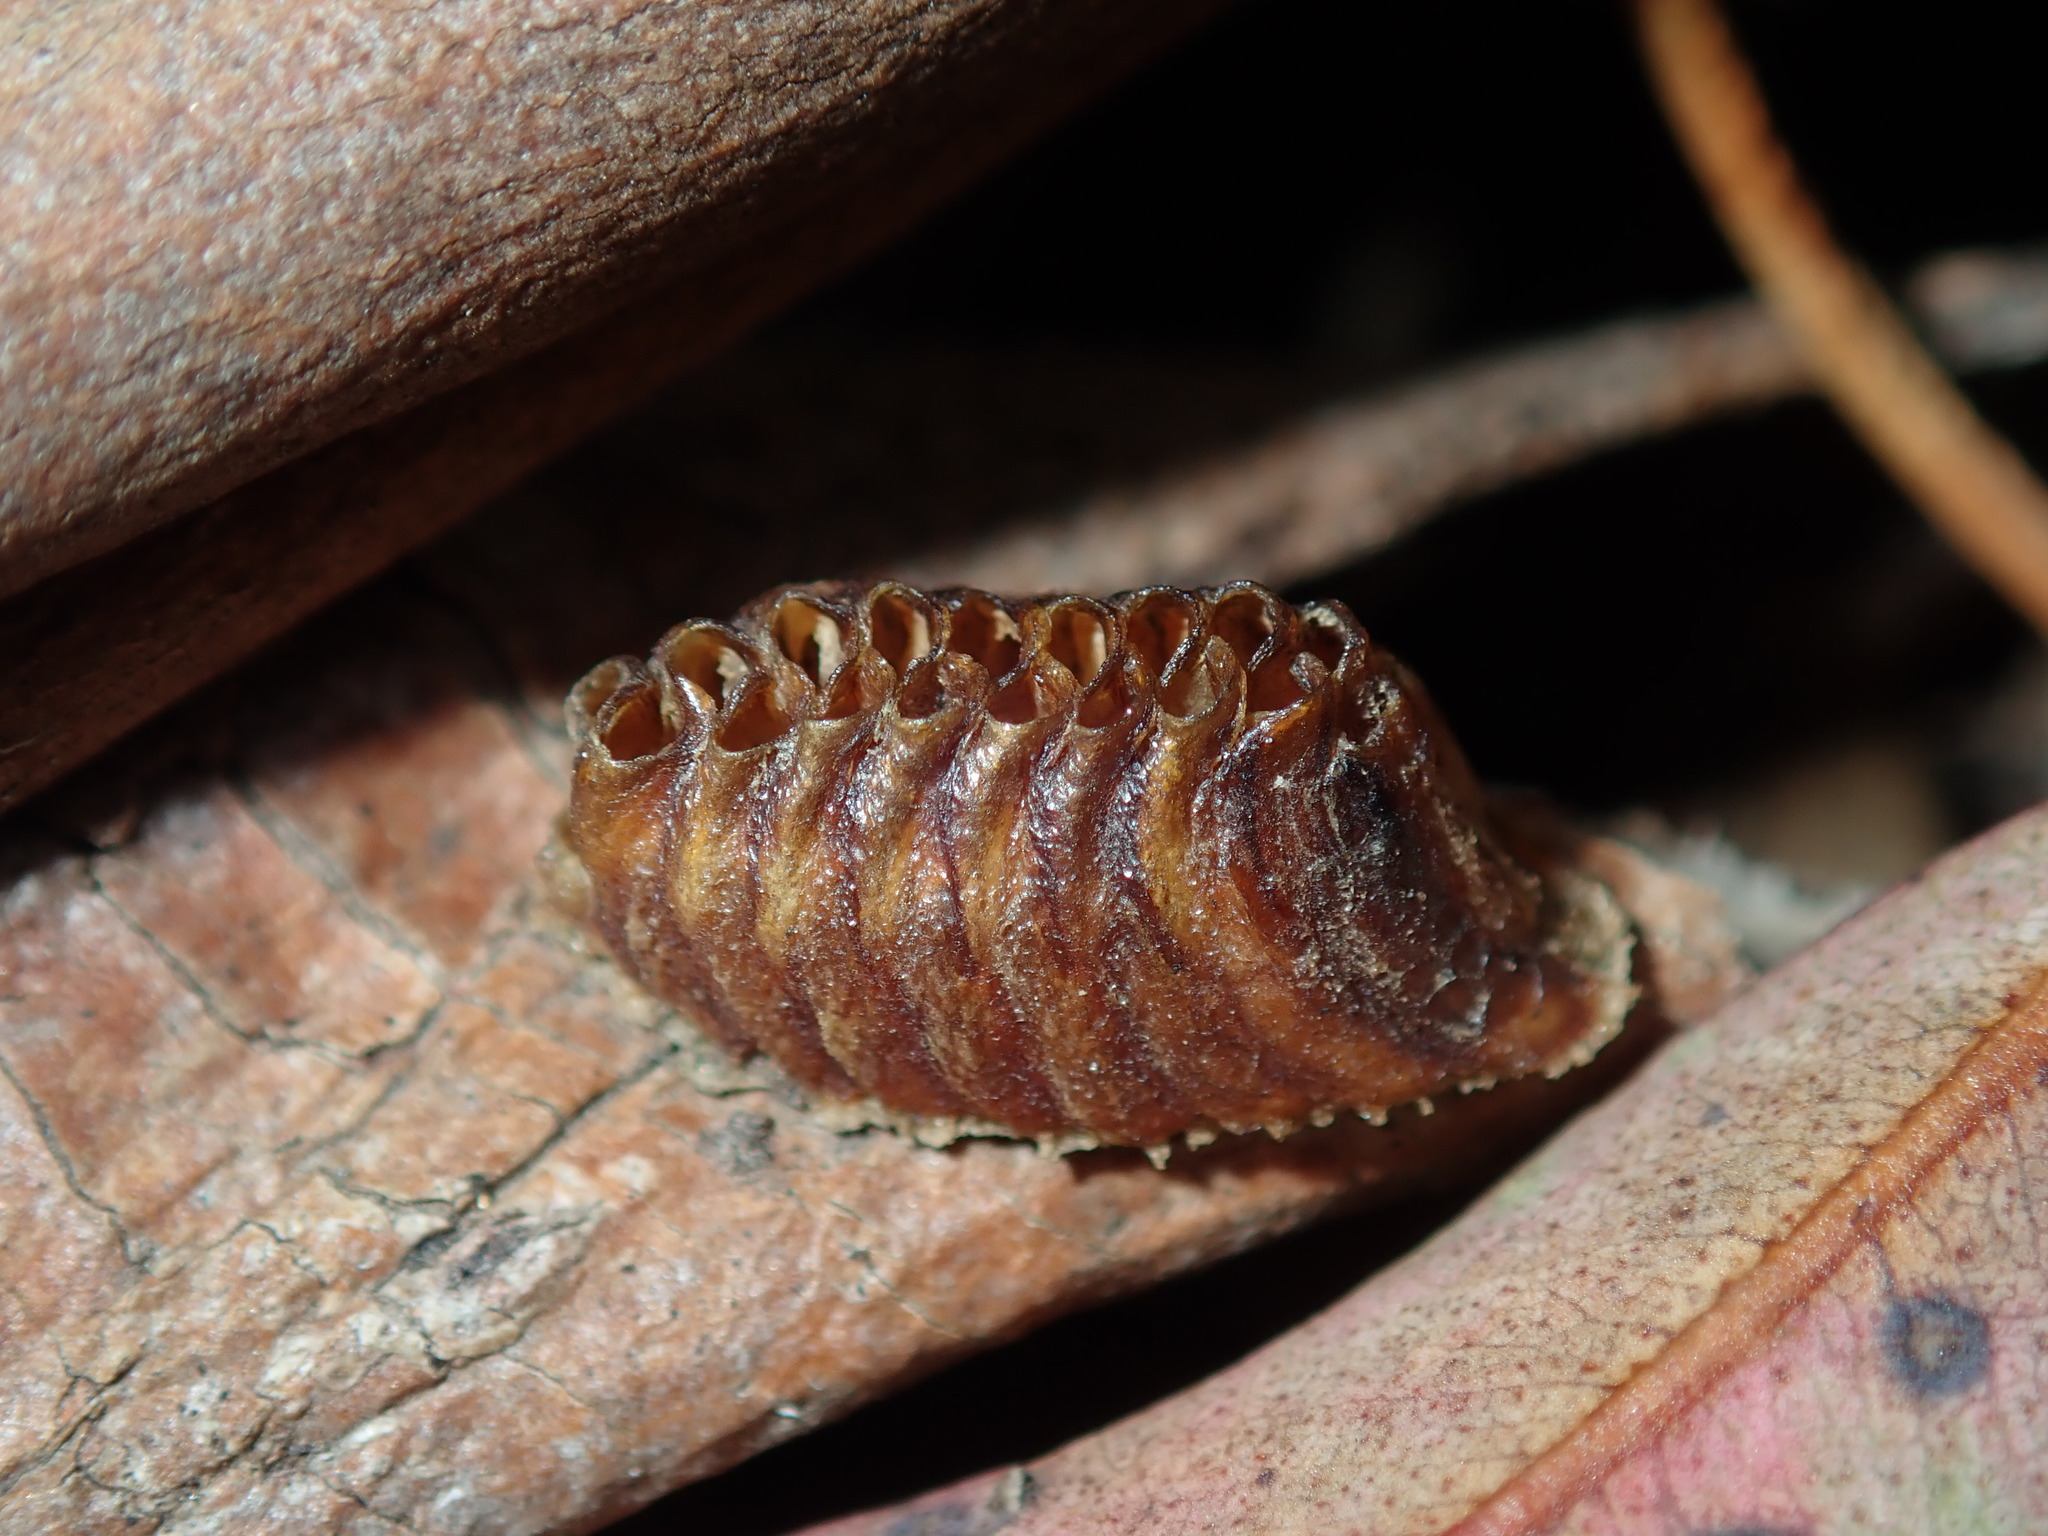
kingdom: Animalia
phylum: Arthropoda
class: Insecta
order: Mantodea
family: Mantidae
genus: Orthodera
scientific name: Orthodera ministralis
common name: Mantis
